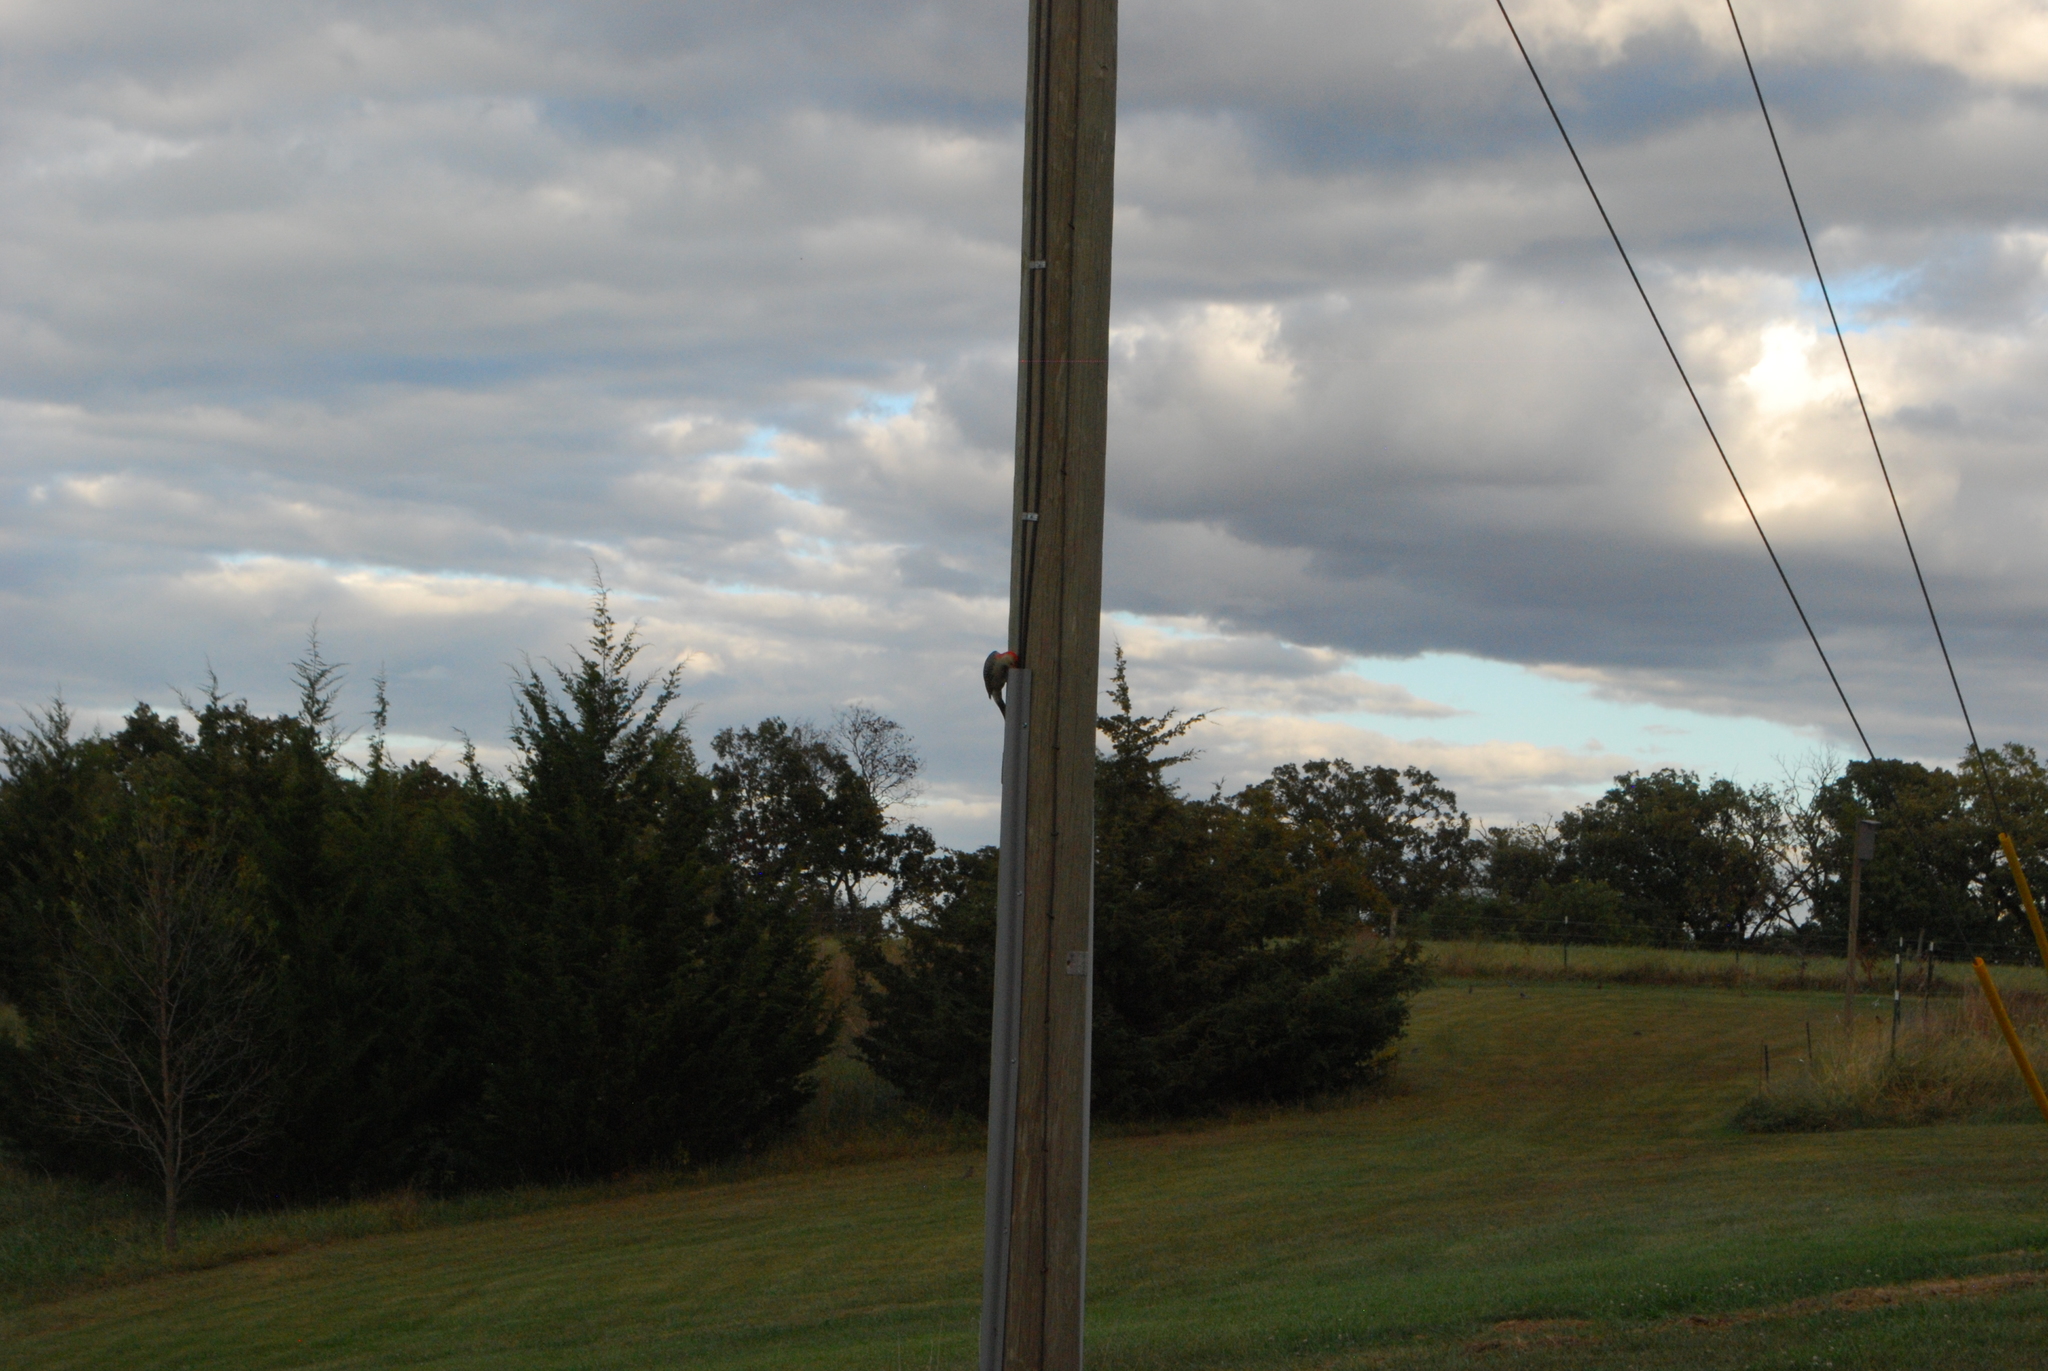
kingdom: Animalia
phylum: Chordata
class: Aves
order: Piciformes
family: Picidae
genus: Melanerpes
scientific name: Melanerpes carolinus
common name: Red-bellied woodpecker
